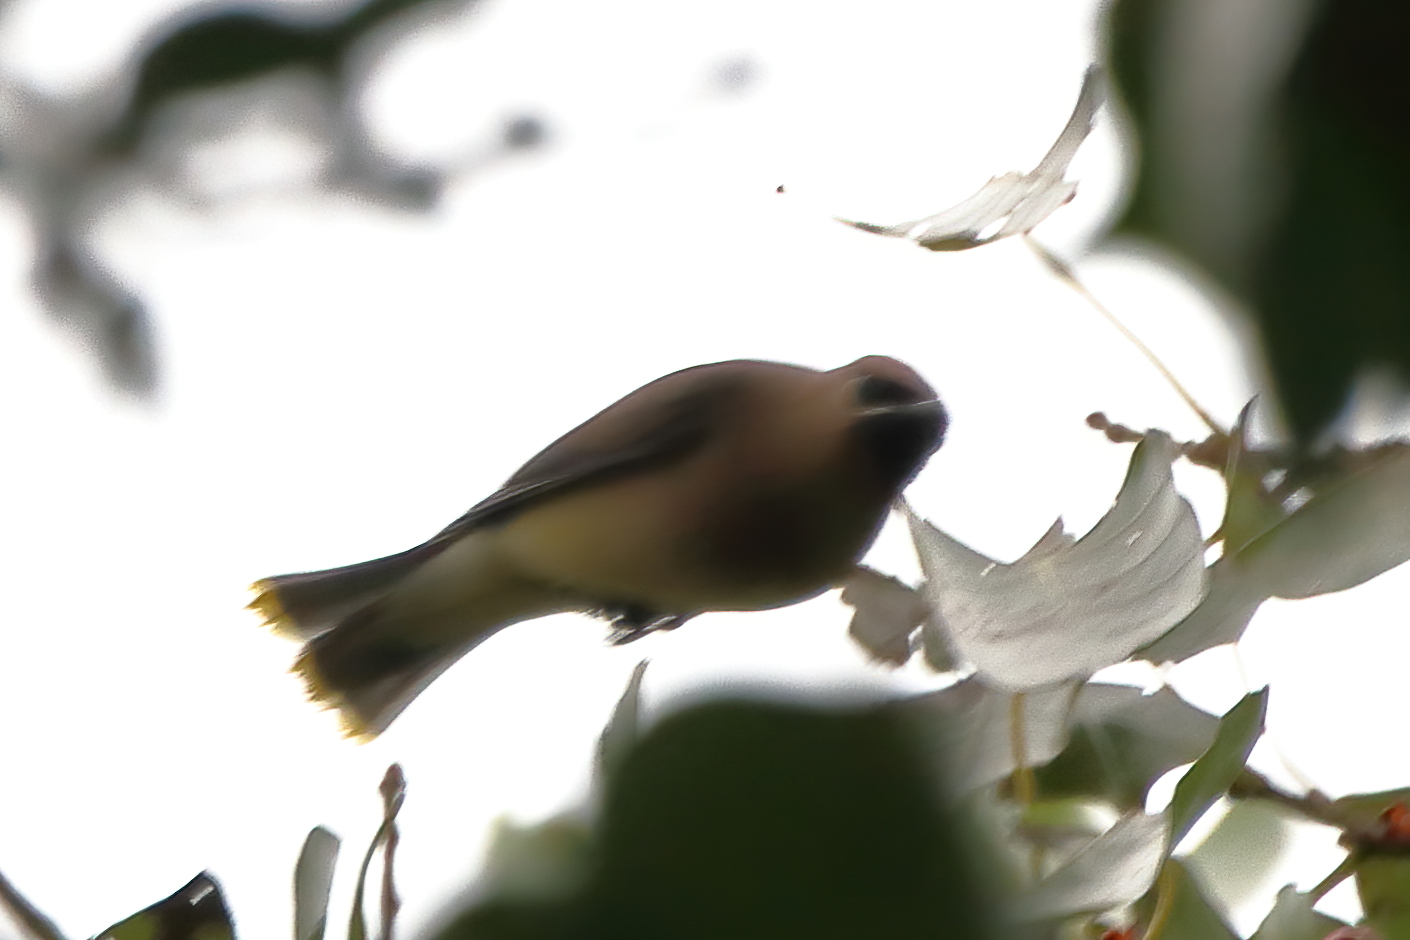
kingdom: Animalia
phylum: Chordata
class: Aves
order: Passeriformes
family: Bombycillidae
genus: Bombycilla
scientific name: Bombycilla cedrorum
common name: Cedar waxwing
